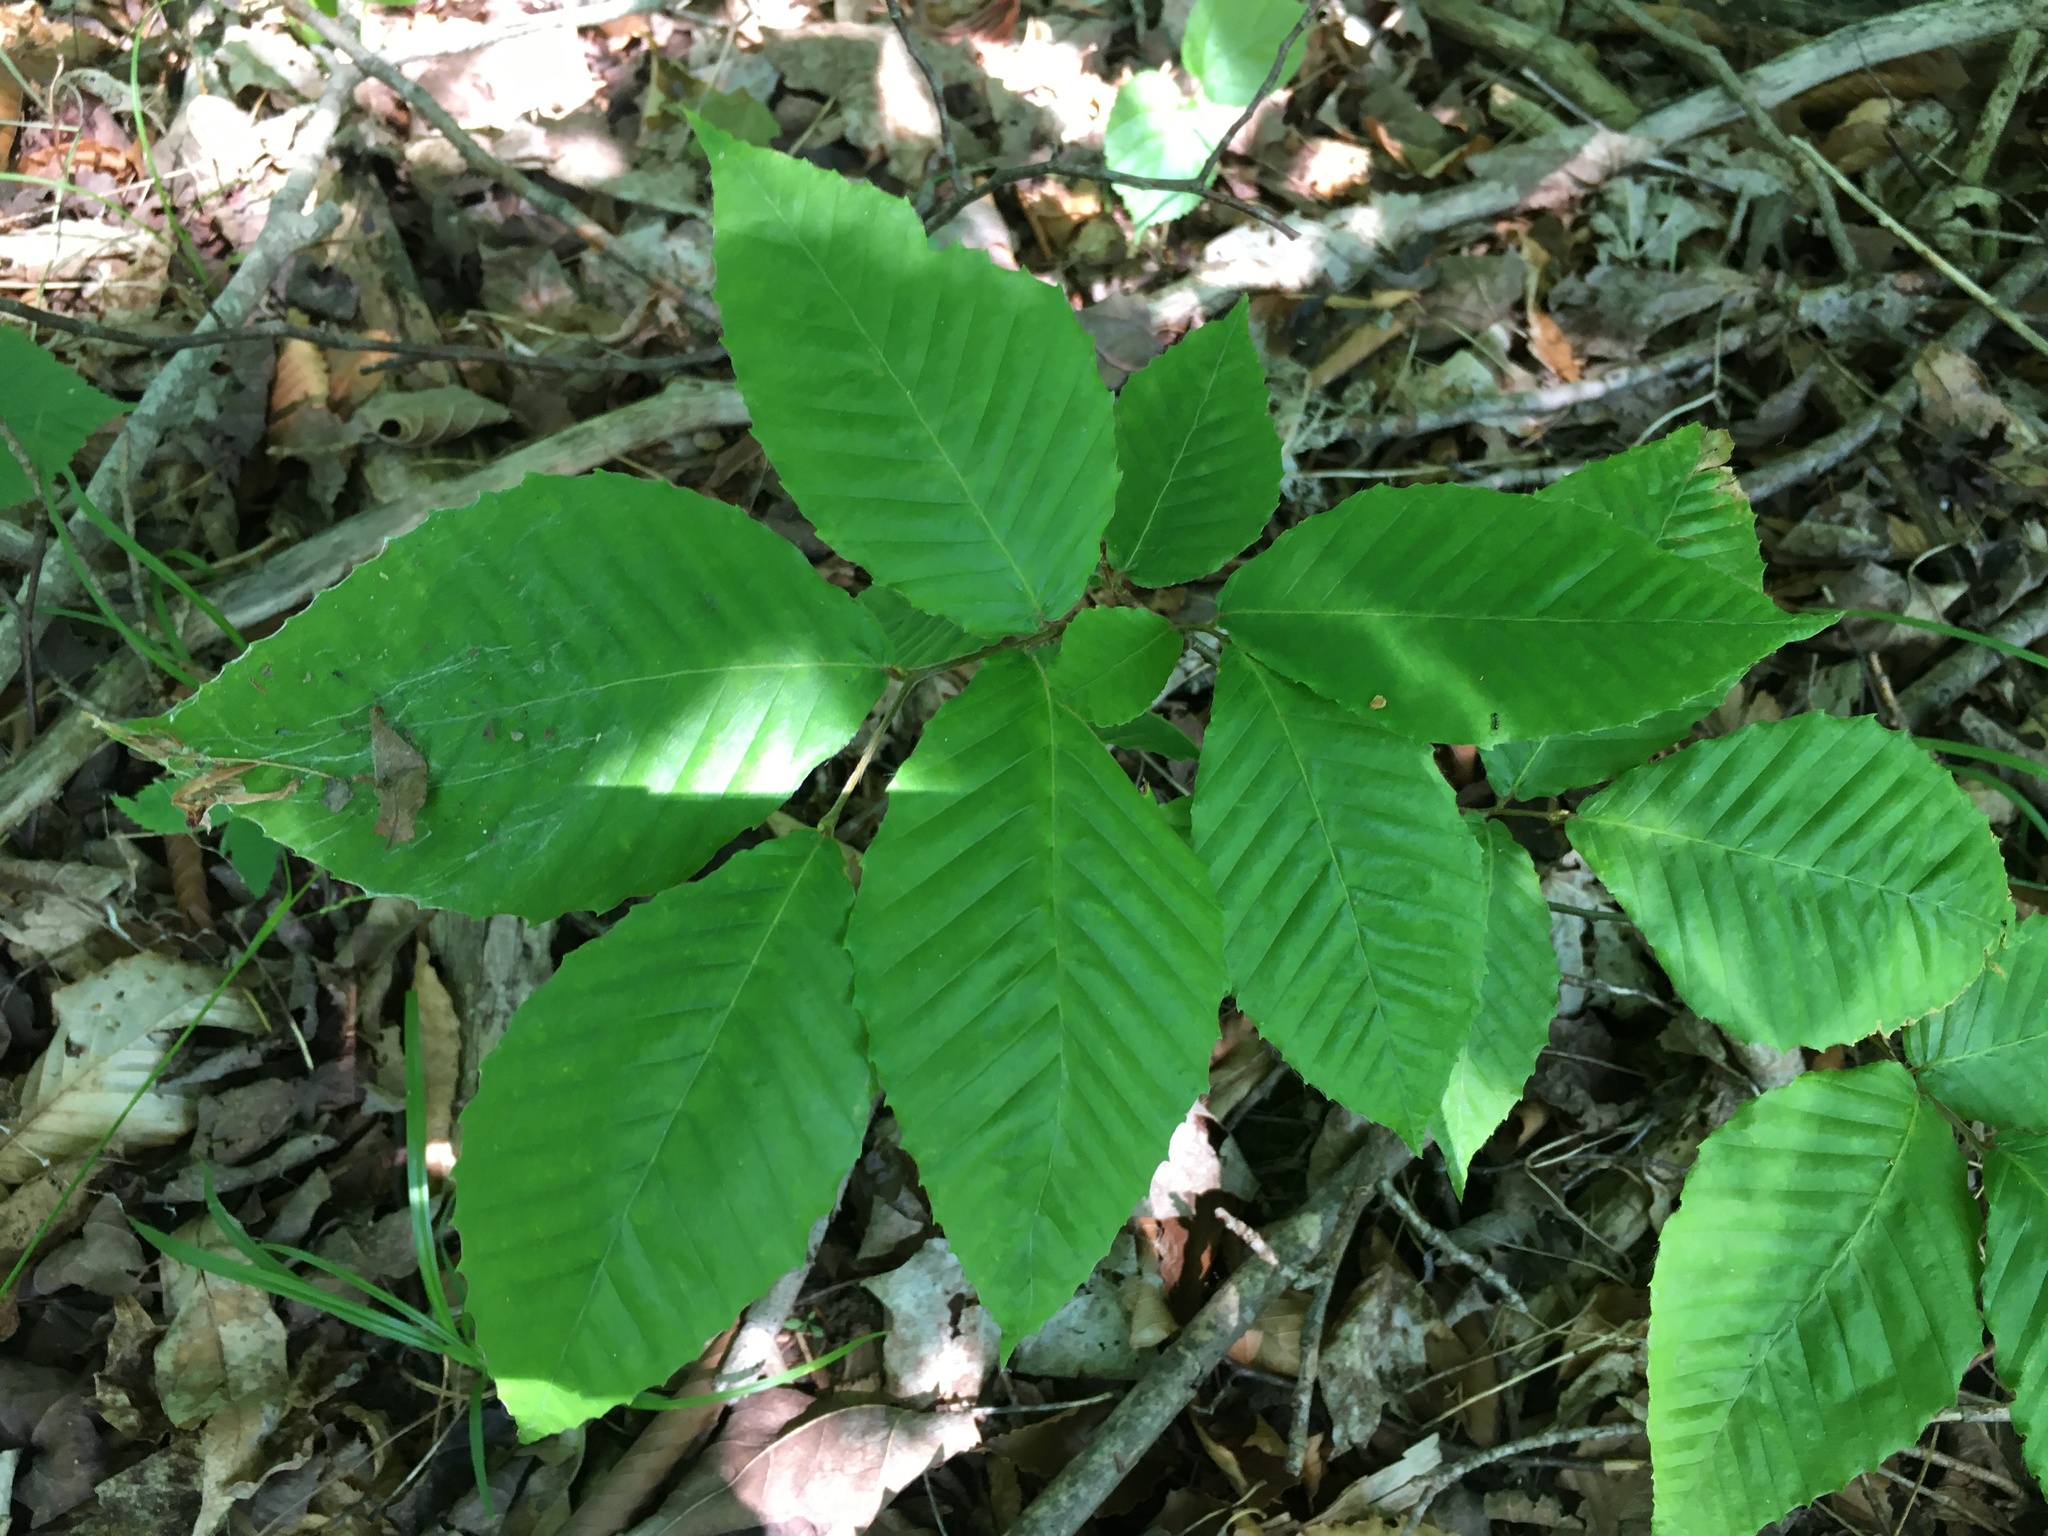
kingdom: Plantae
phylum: Tracheophyta
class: Magnoliopsida
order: Fagales
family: Fagaceae
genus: Fagus
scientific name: Fagus grandifolia
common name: American beech
